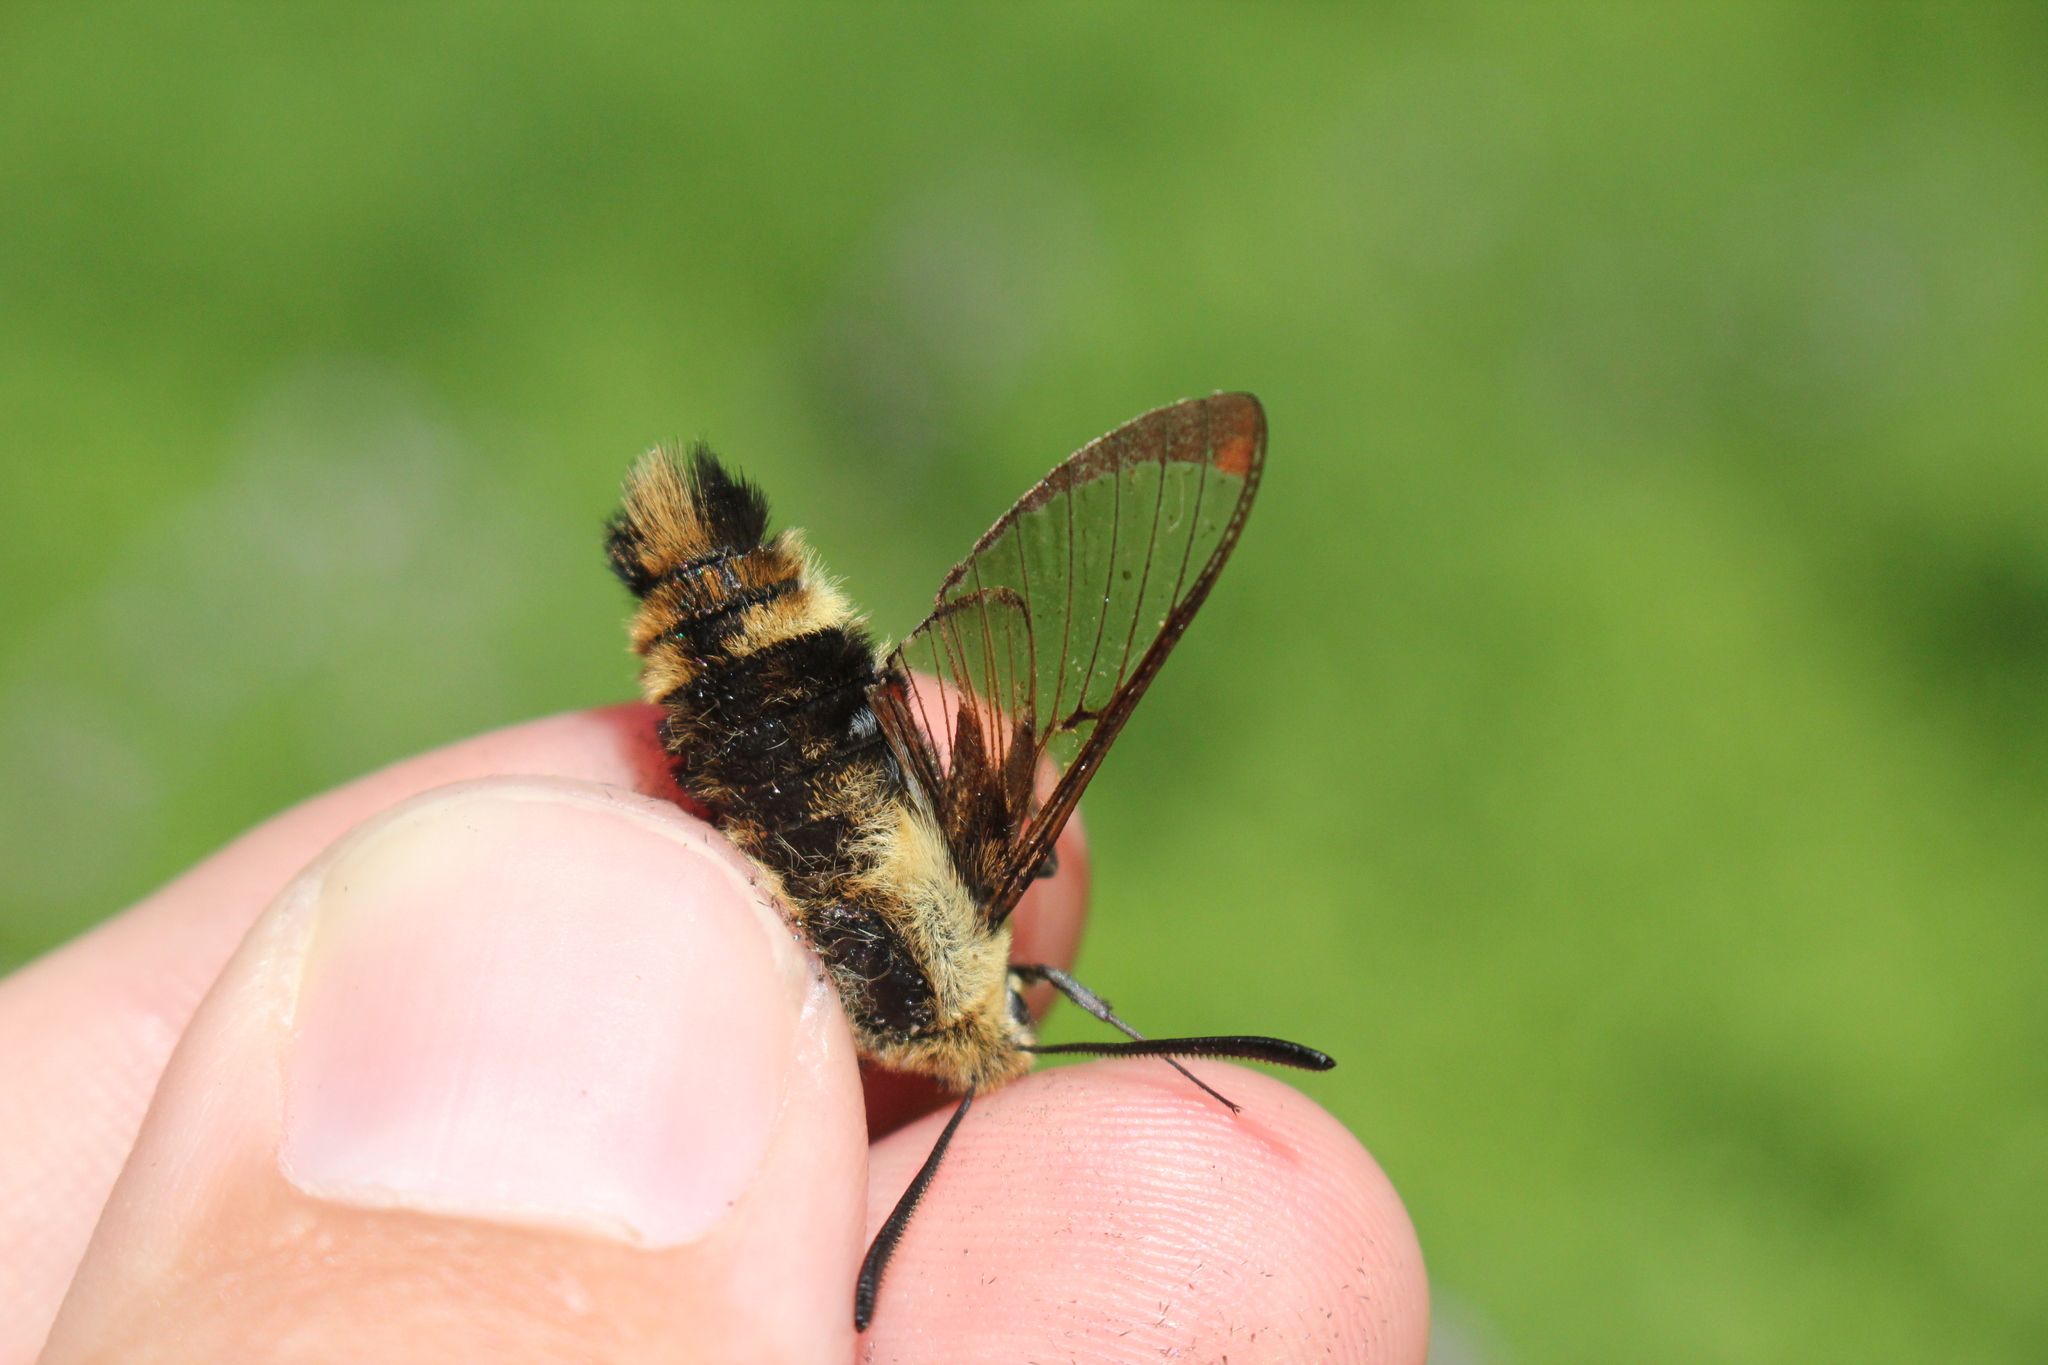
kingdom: Animalia
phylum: Arthropoda
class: Insecta
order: Lepidoptera
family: Sphingidae
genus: Hemaris
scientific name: Hemaris diffinis
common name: Bumblebee moth
